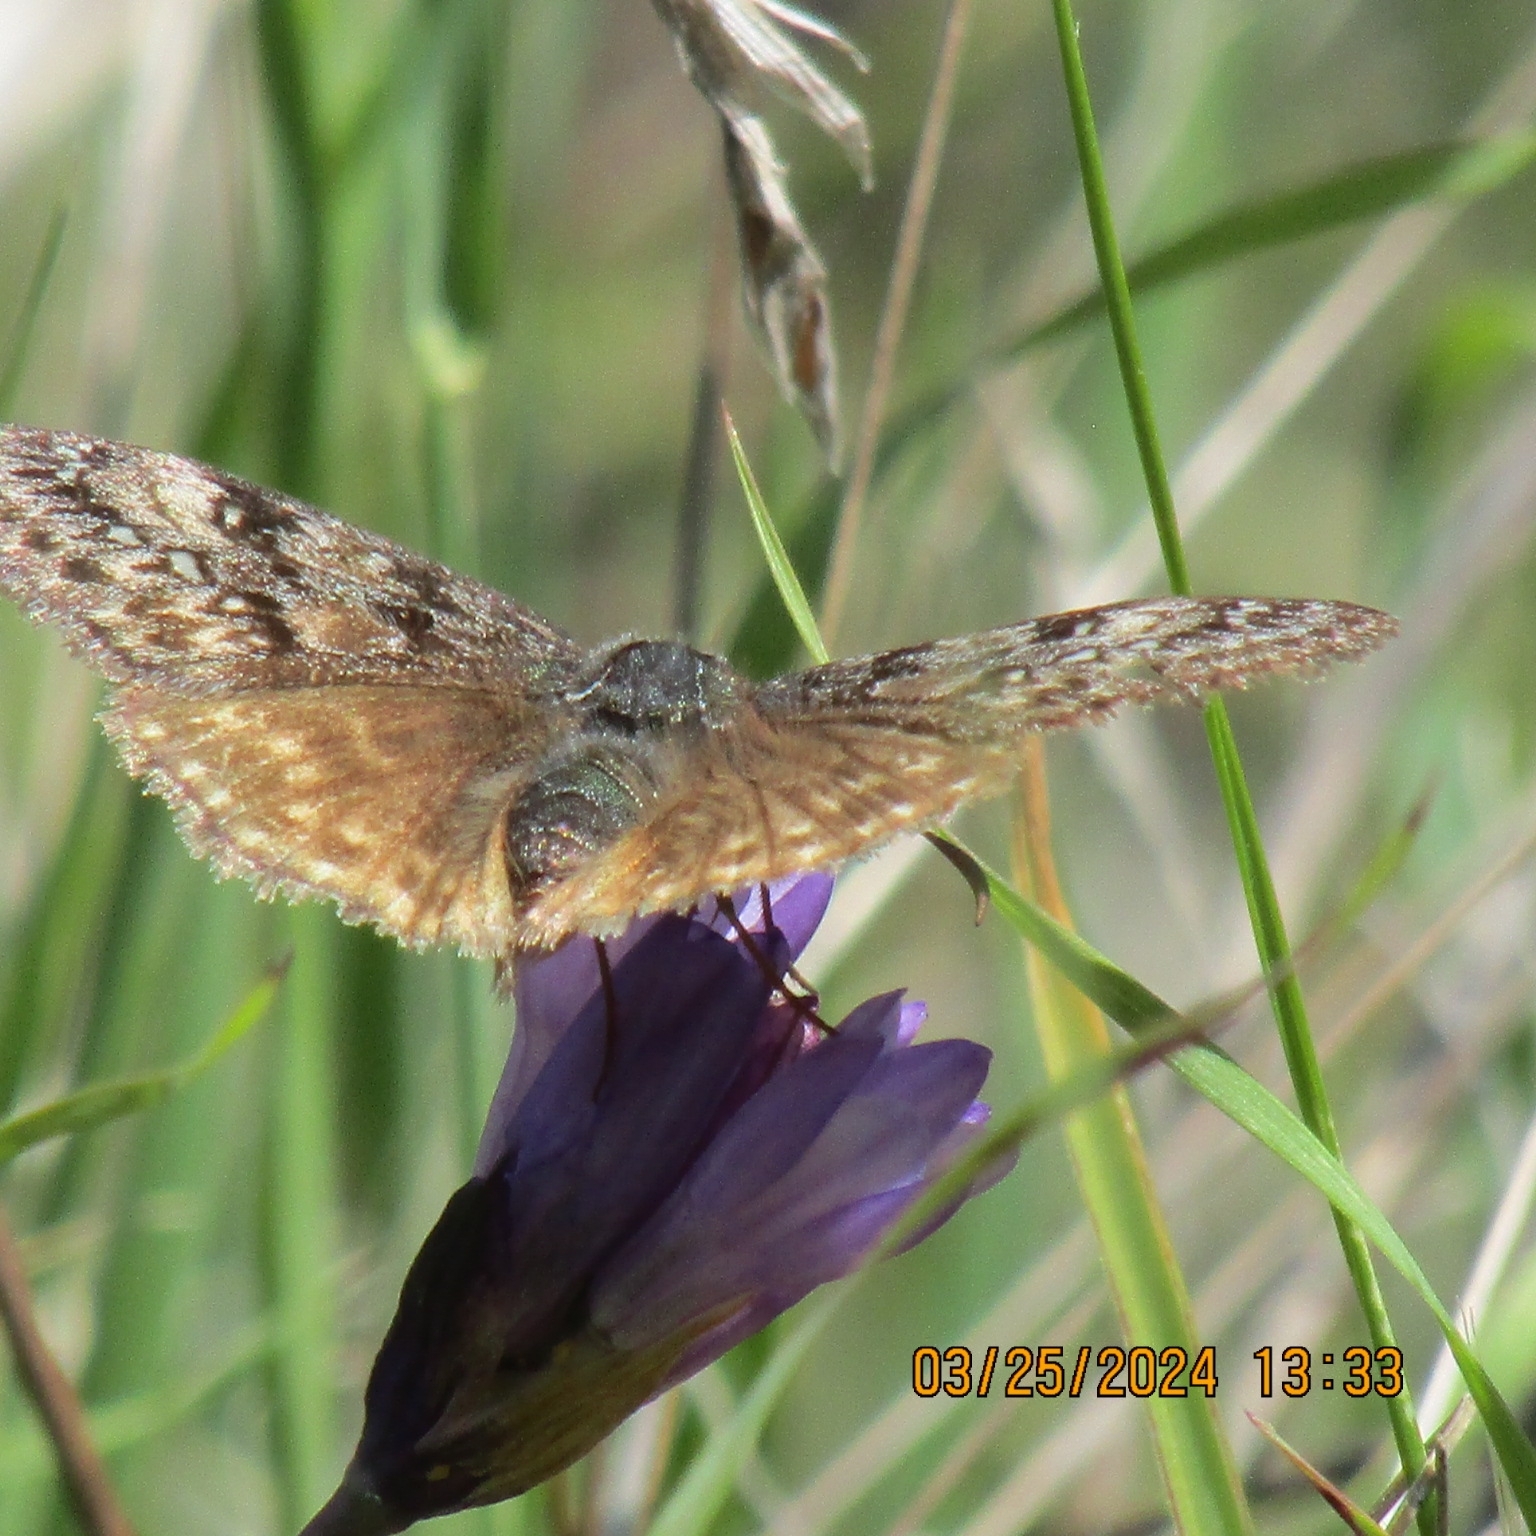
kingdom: Animalia
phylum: Arthropoda
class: Insecta
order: Lepidoptera
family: Hesperiidae
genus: Erynnis
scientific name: Erynnis propertius
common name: Propertius duskywing
